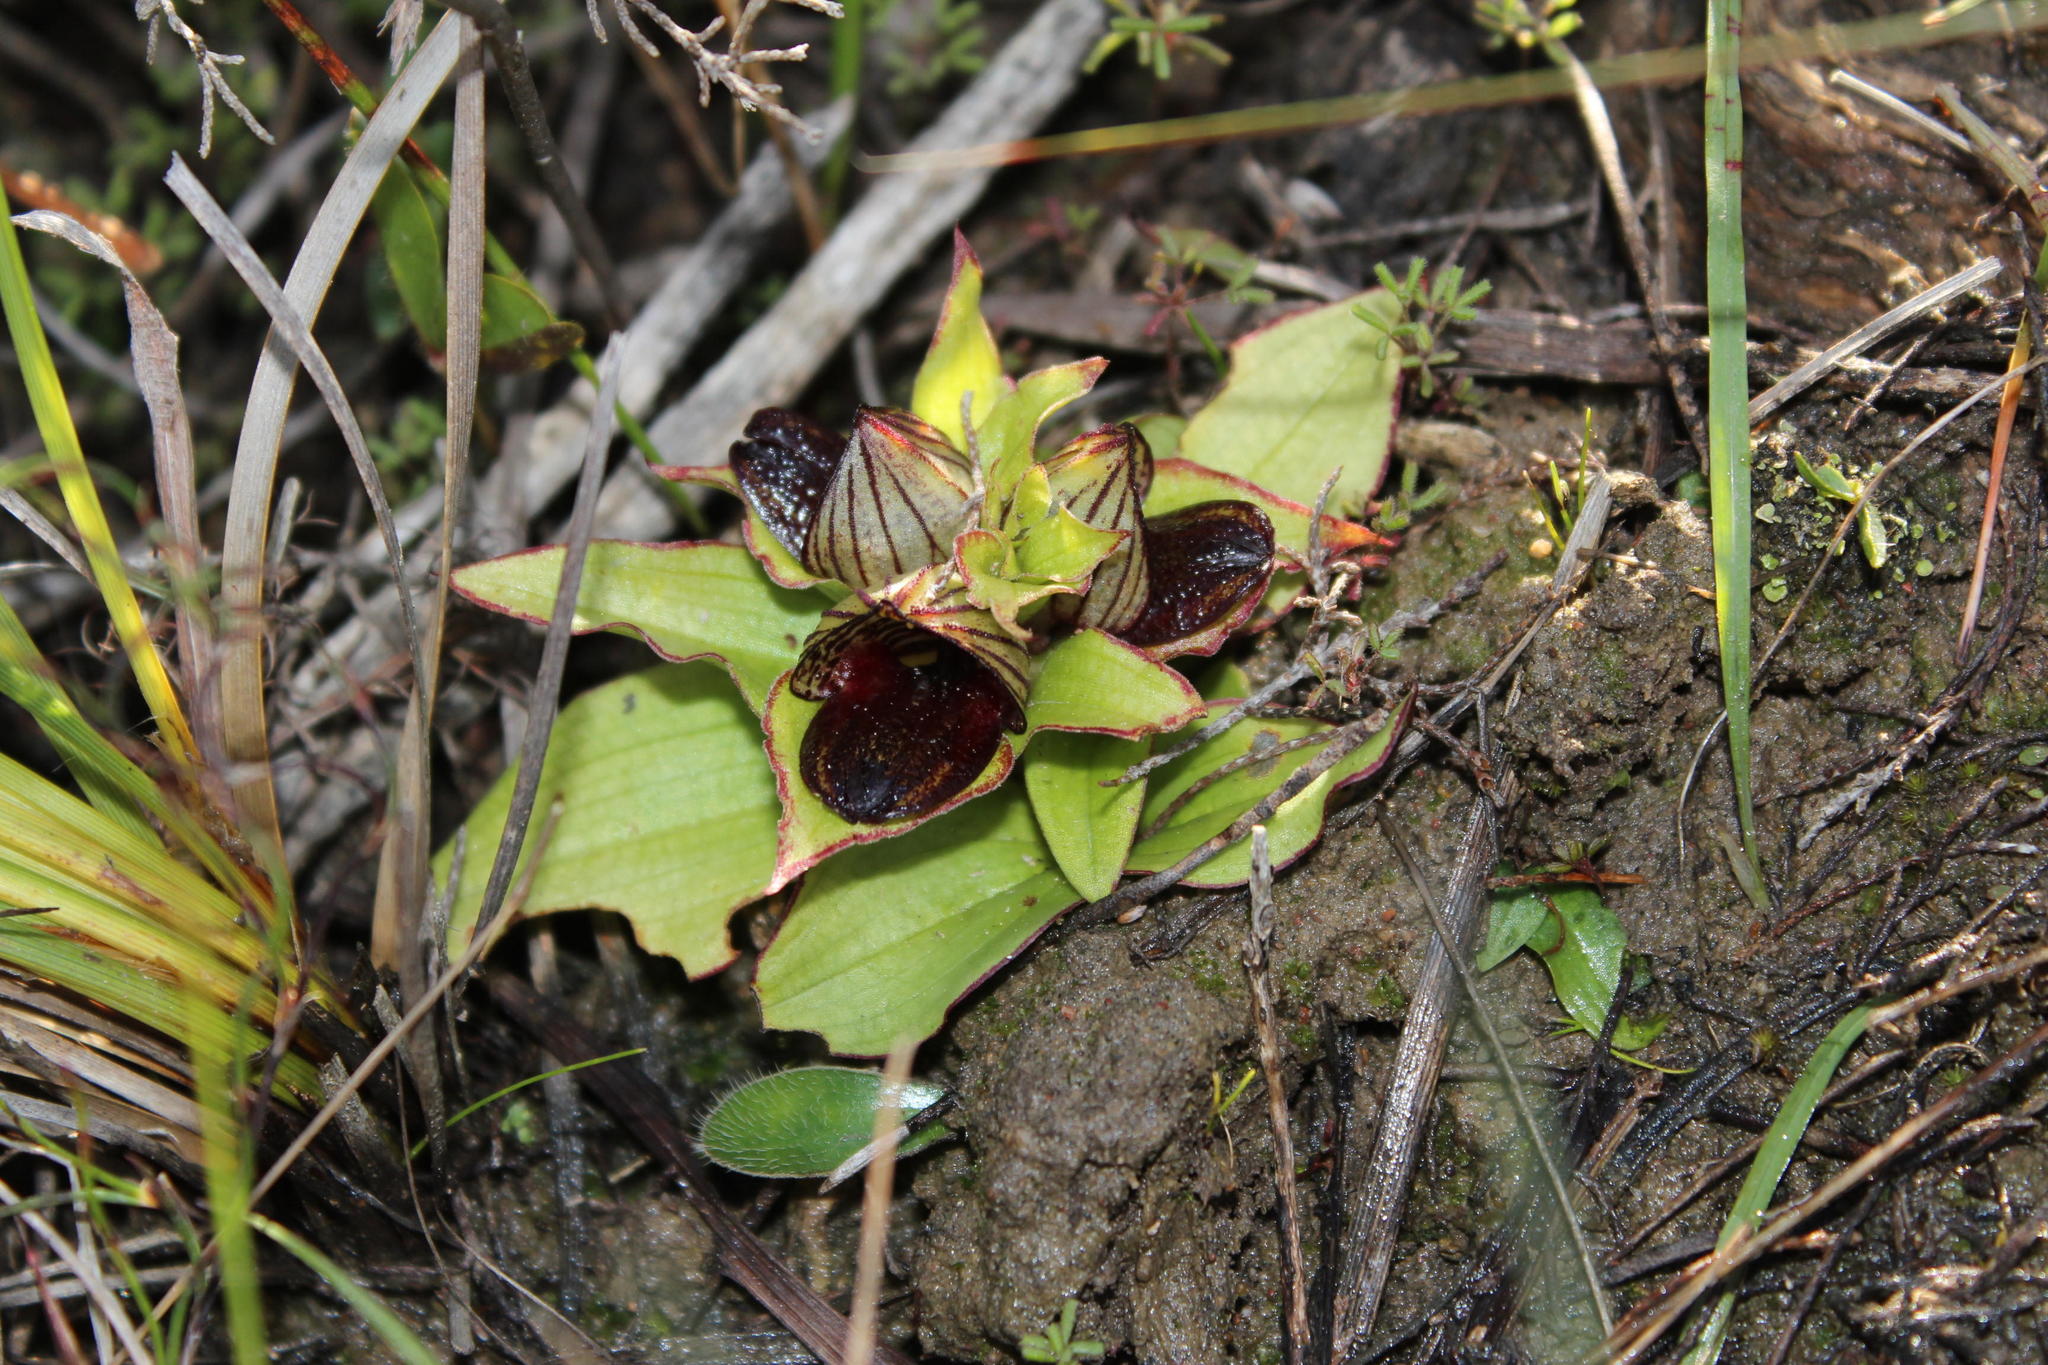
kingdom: Plantae
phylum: Tracheophyta
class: Liliopsida
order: Asparagales
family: Orchidaceae
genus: Satyrium
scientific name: Satyrium pumilum
